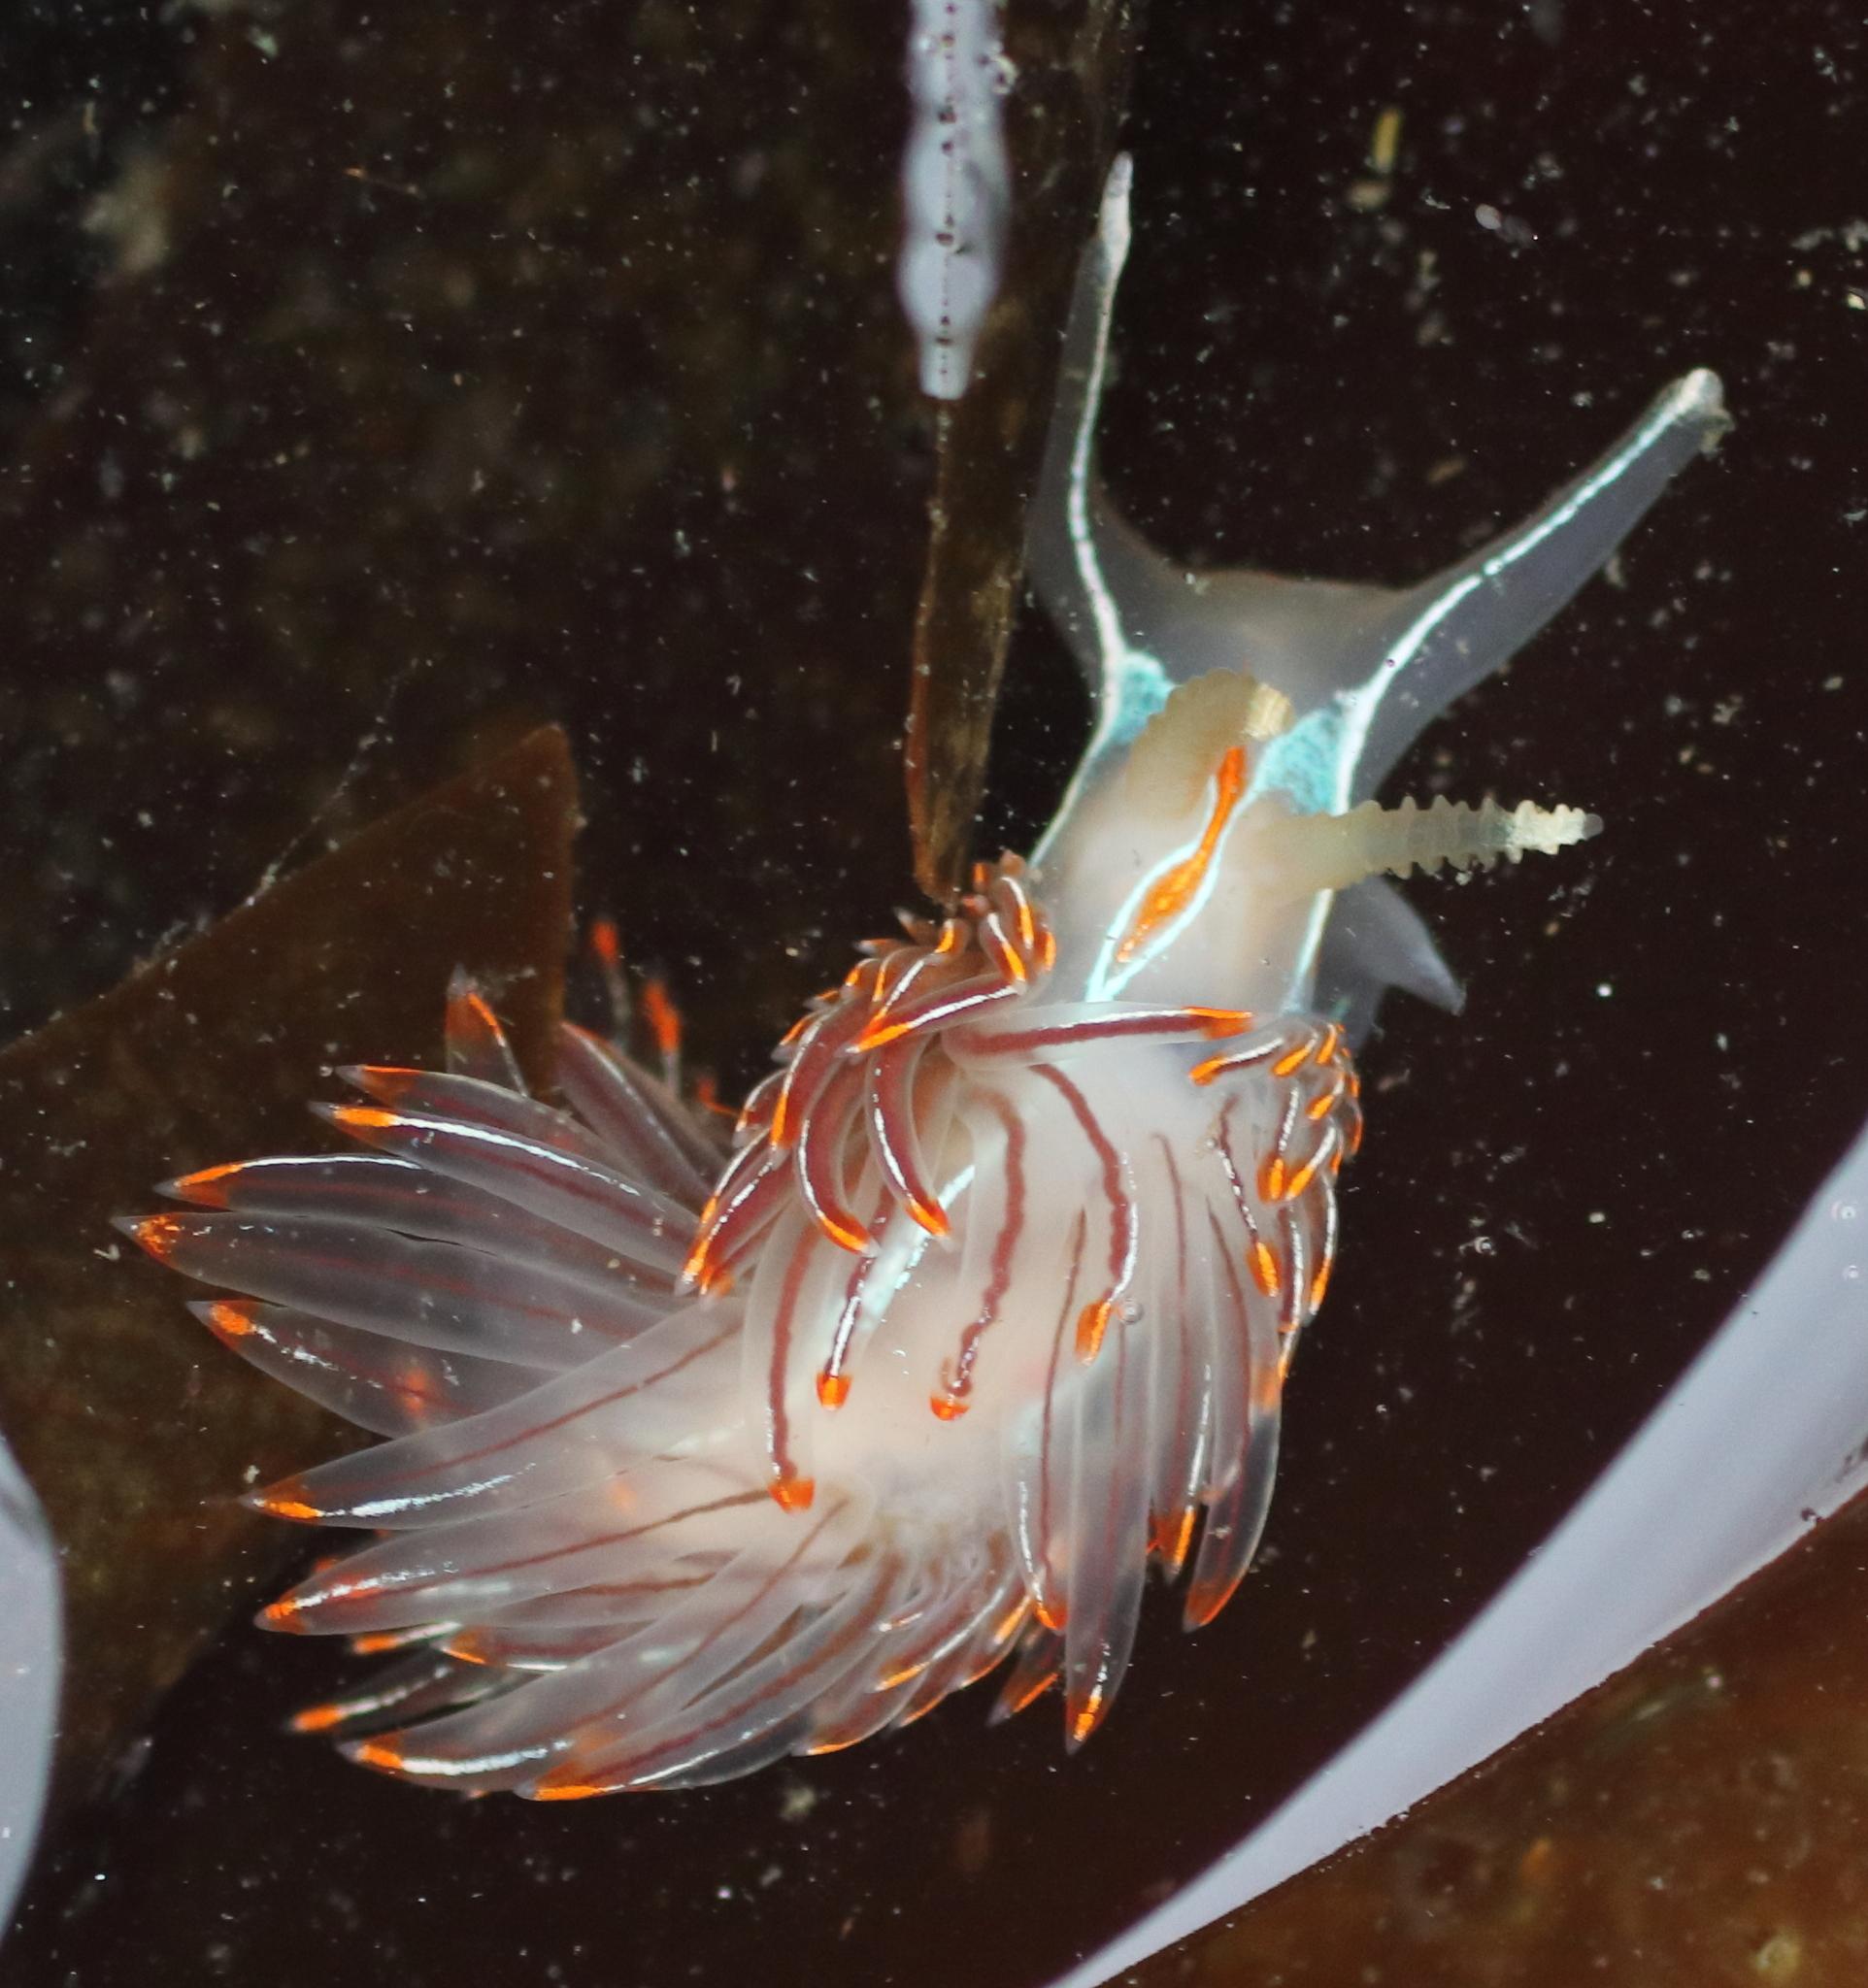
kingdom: Animalia
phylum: Mollusca
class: Gastropoda
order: Nudibranchia
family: Myrrhinidae
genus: Hermissenda
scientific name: Hermissenda crassicornis
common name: Hermissenda
